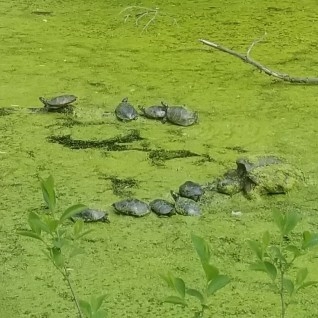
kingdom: Animalia
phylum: Chordata
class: Testudines
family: Emydidae
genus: Chrysemys
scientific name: Chrysemys picta
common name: Painted turtle
